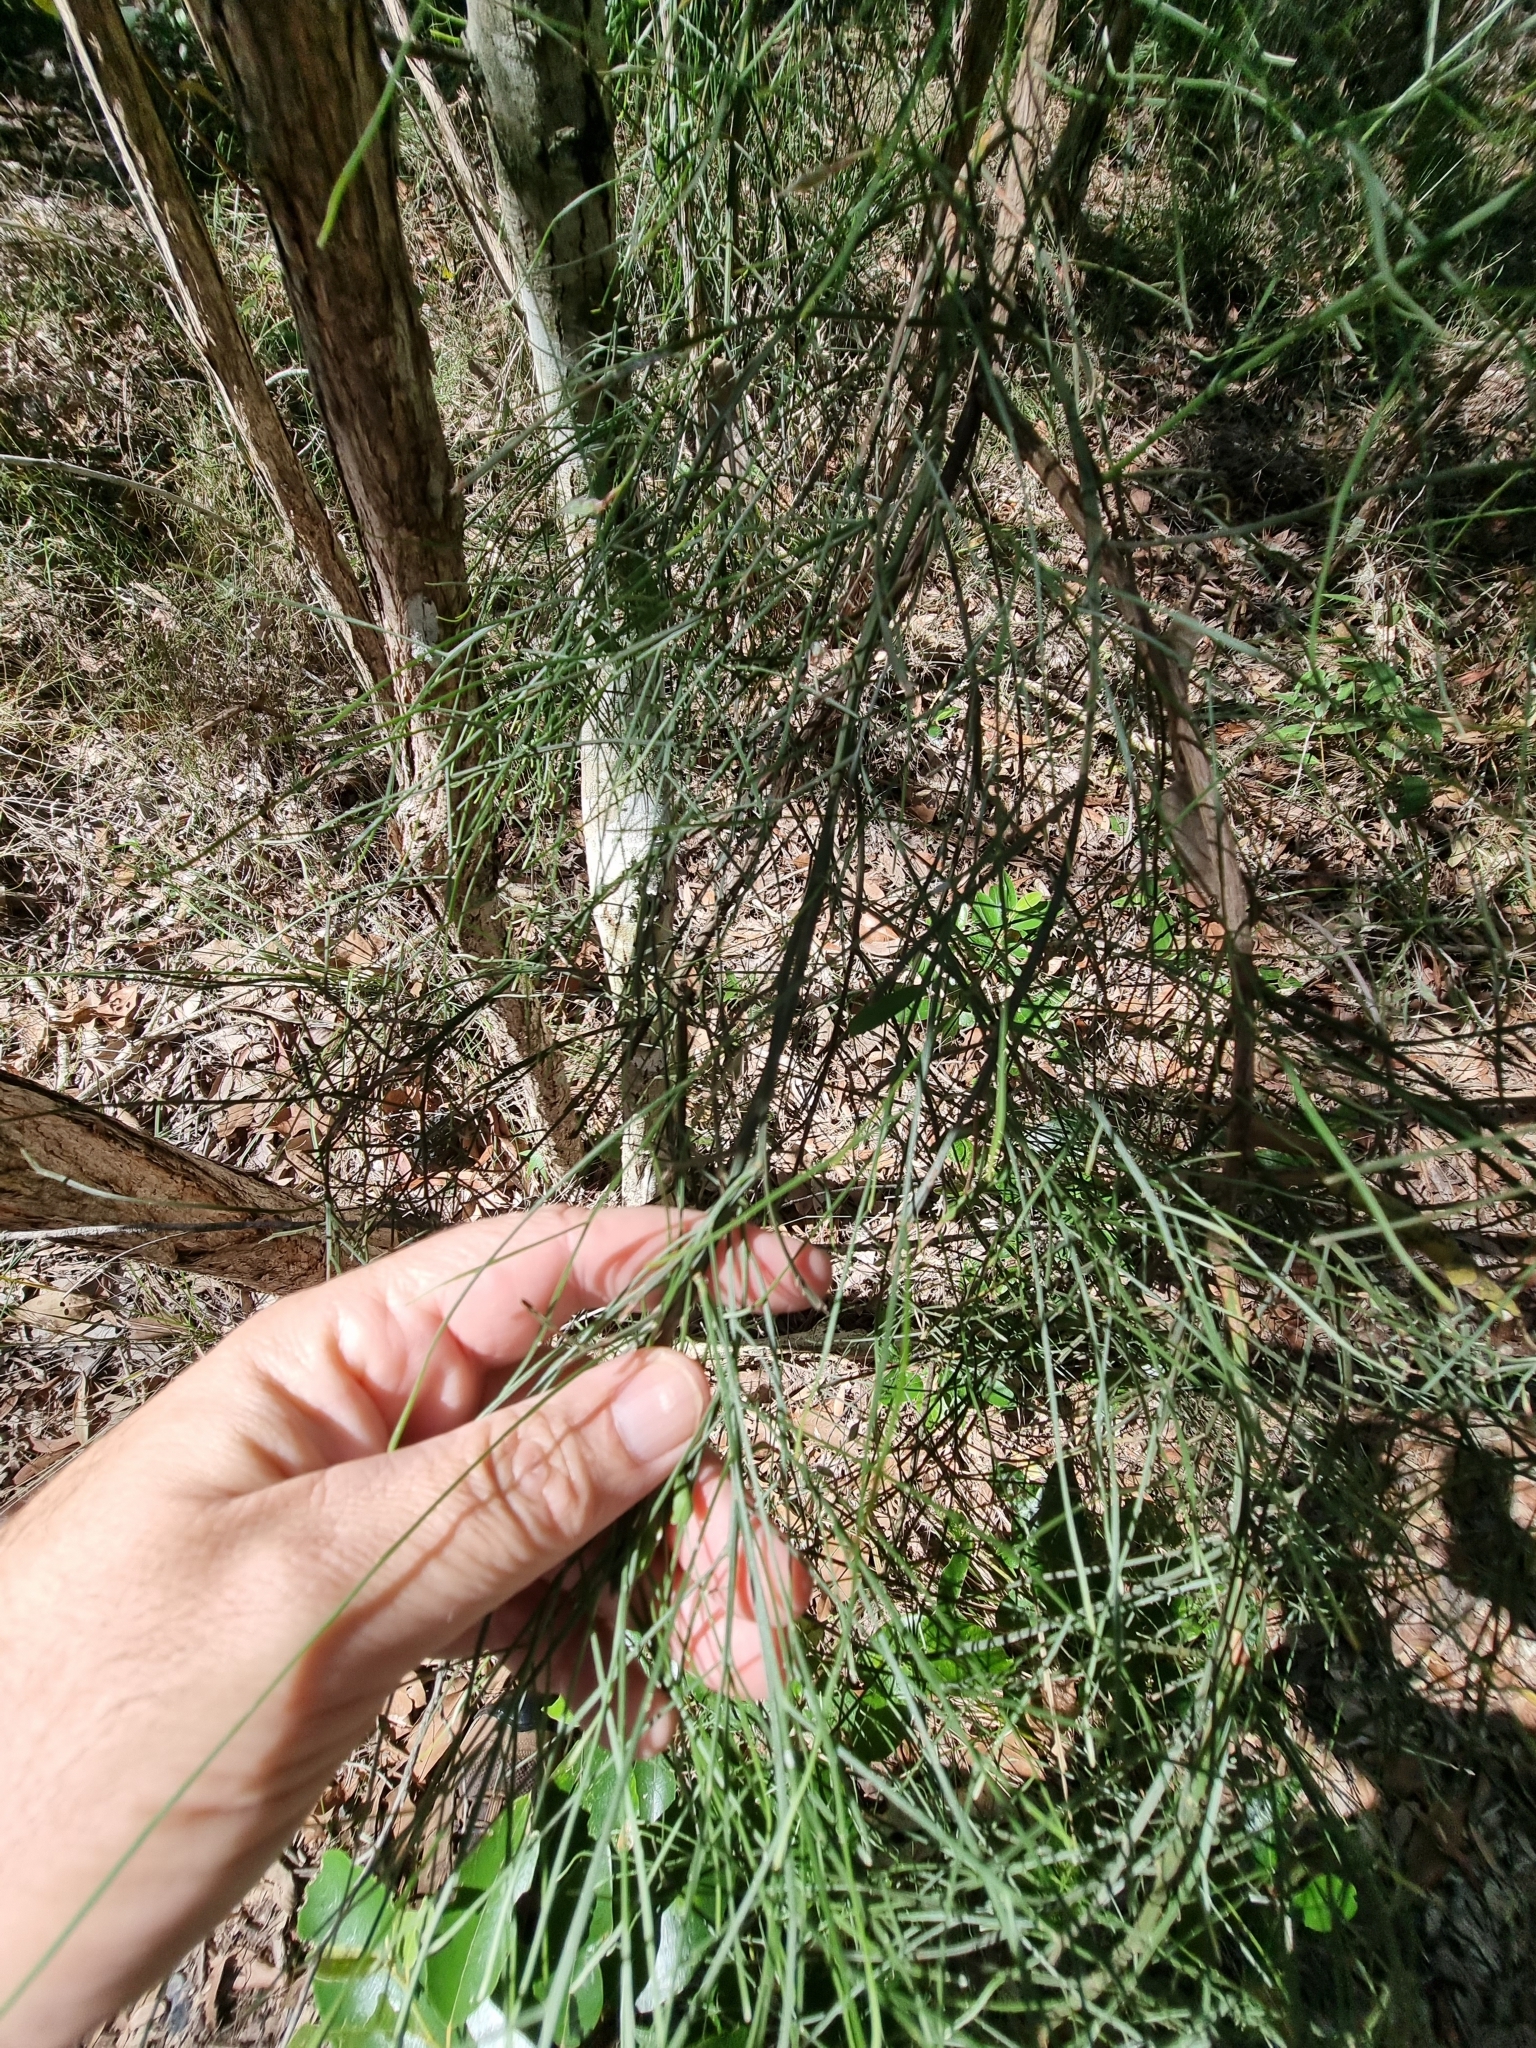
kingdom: Plantae
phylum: Tracheophyta
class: Magnoliopsida
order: Fabales
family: Fabaceae
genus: Jacksonia
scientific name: Jacksonia scoparia
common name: Dogwood
